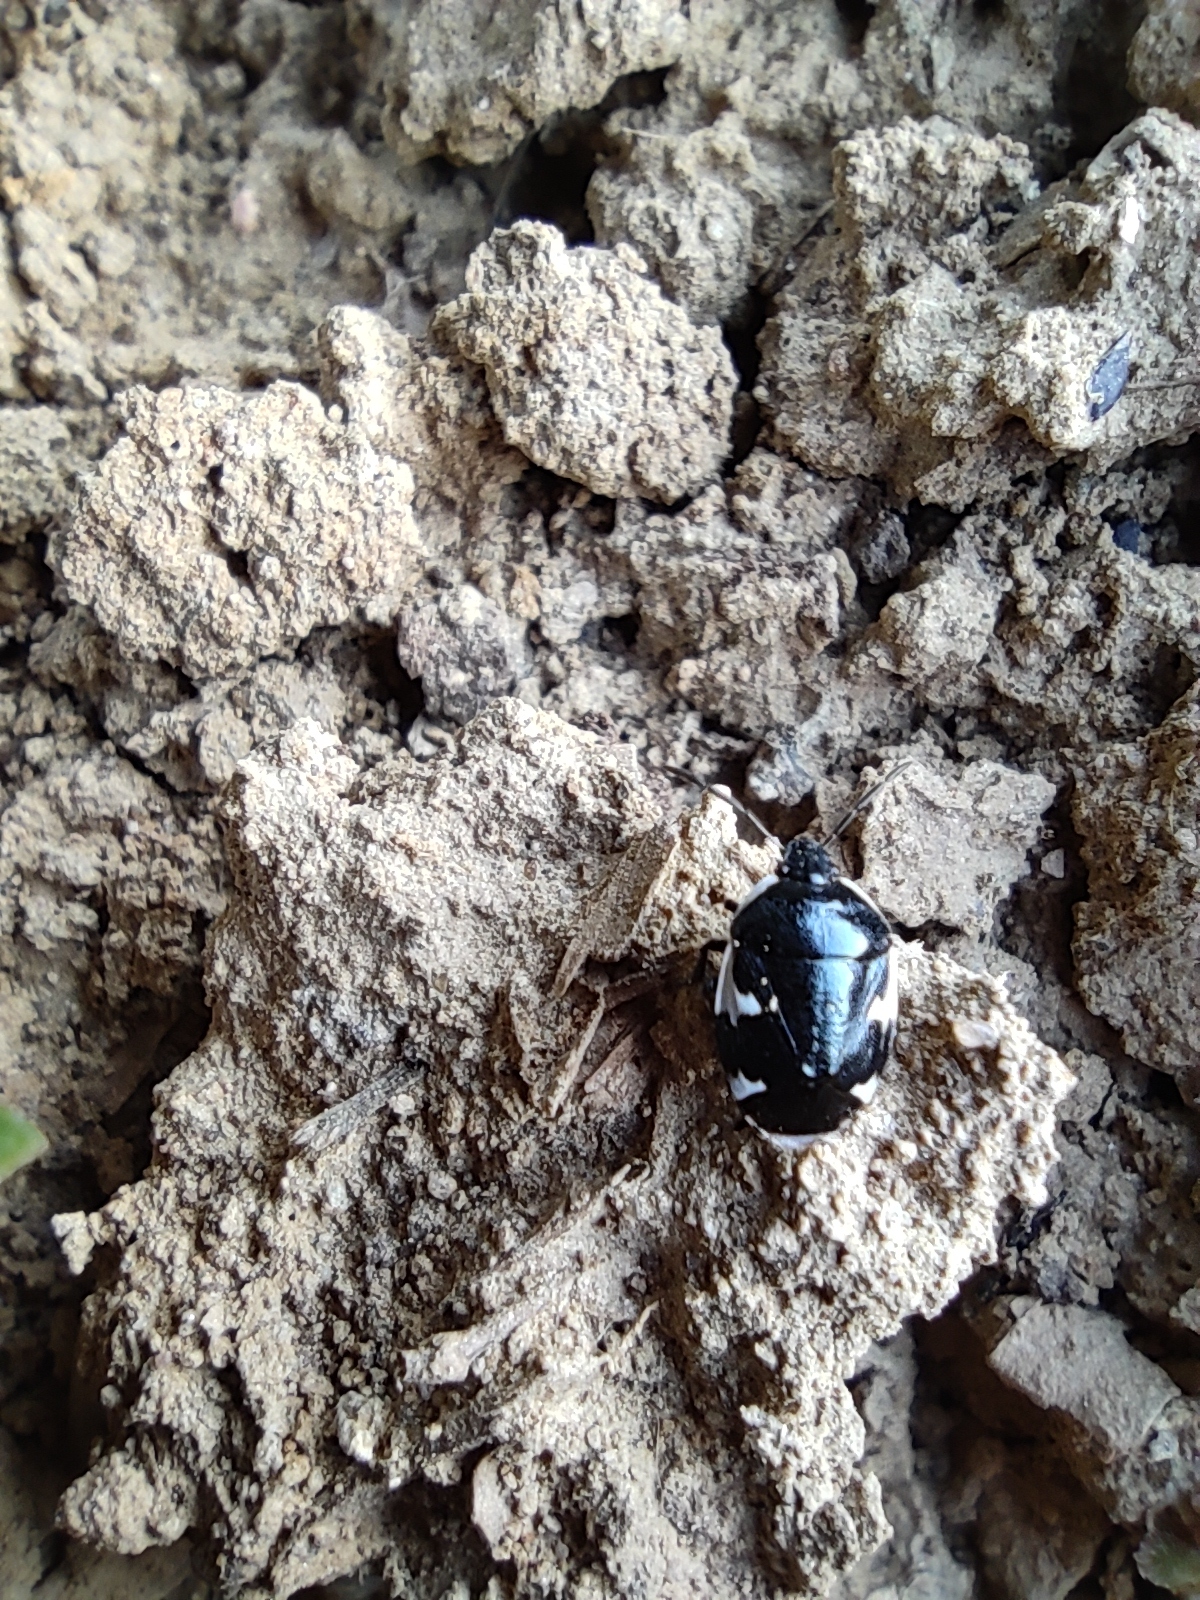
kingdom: Animalia
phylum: Arthropoda
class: Insecta
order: Hemiptera
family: Cydnidae
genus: Tritomegas
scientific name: Tritomegas sexmaculatus
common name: Rambur's pied shieldbug
